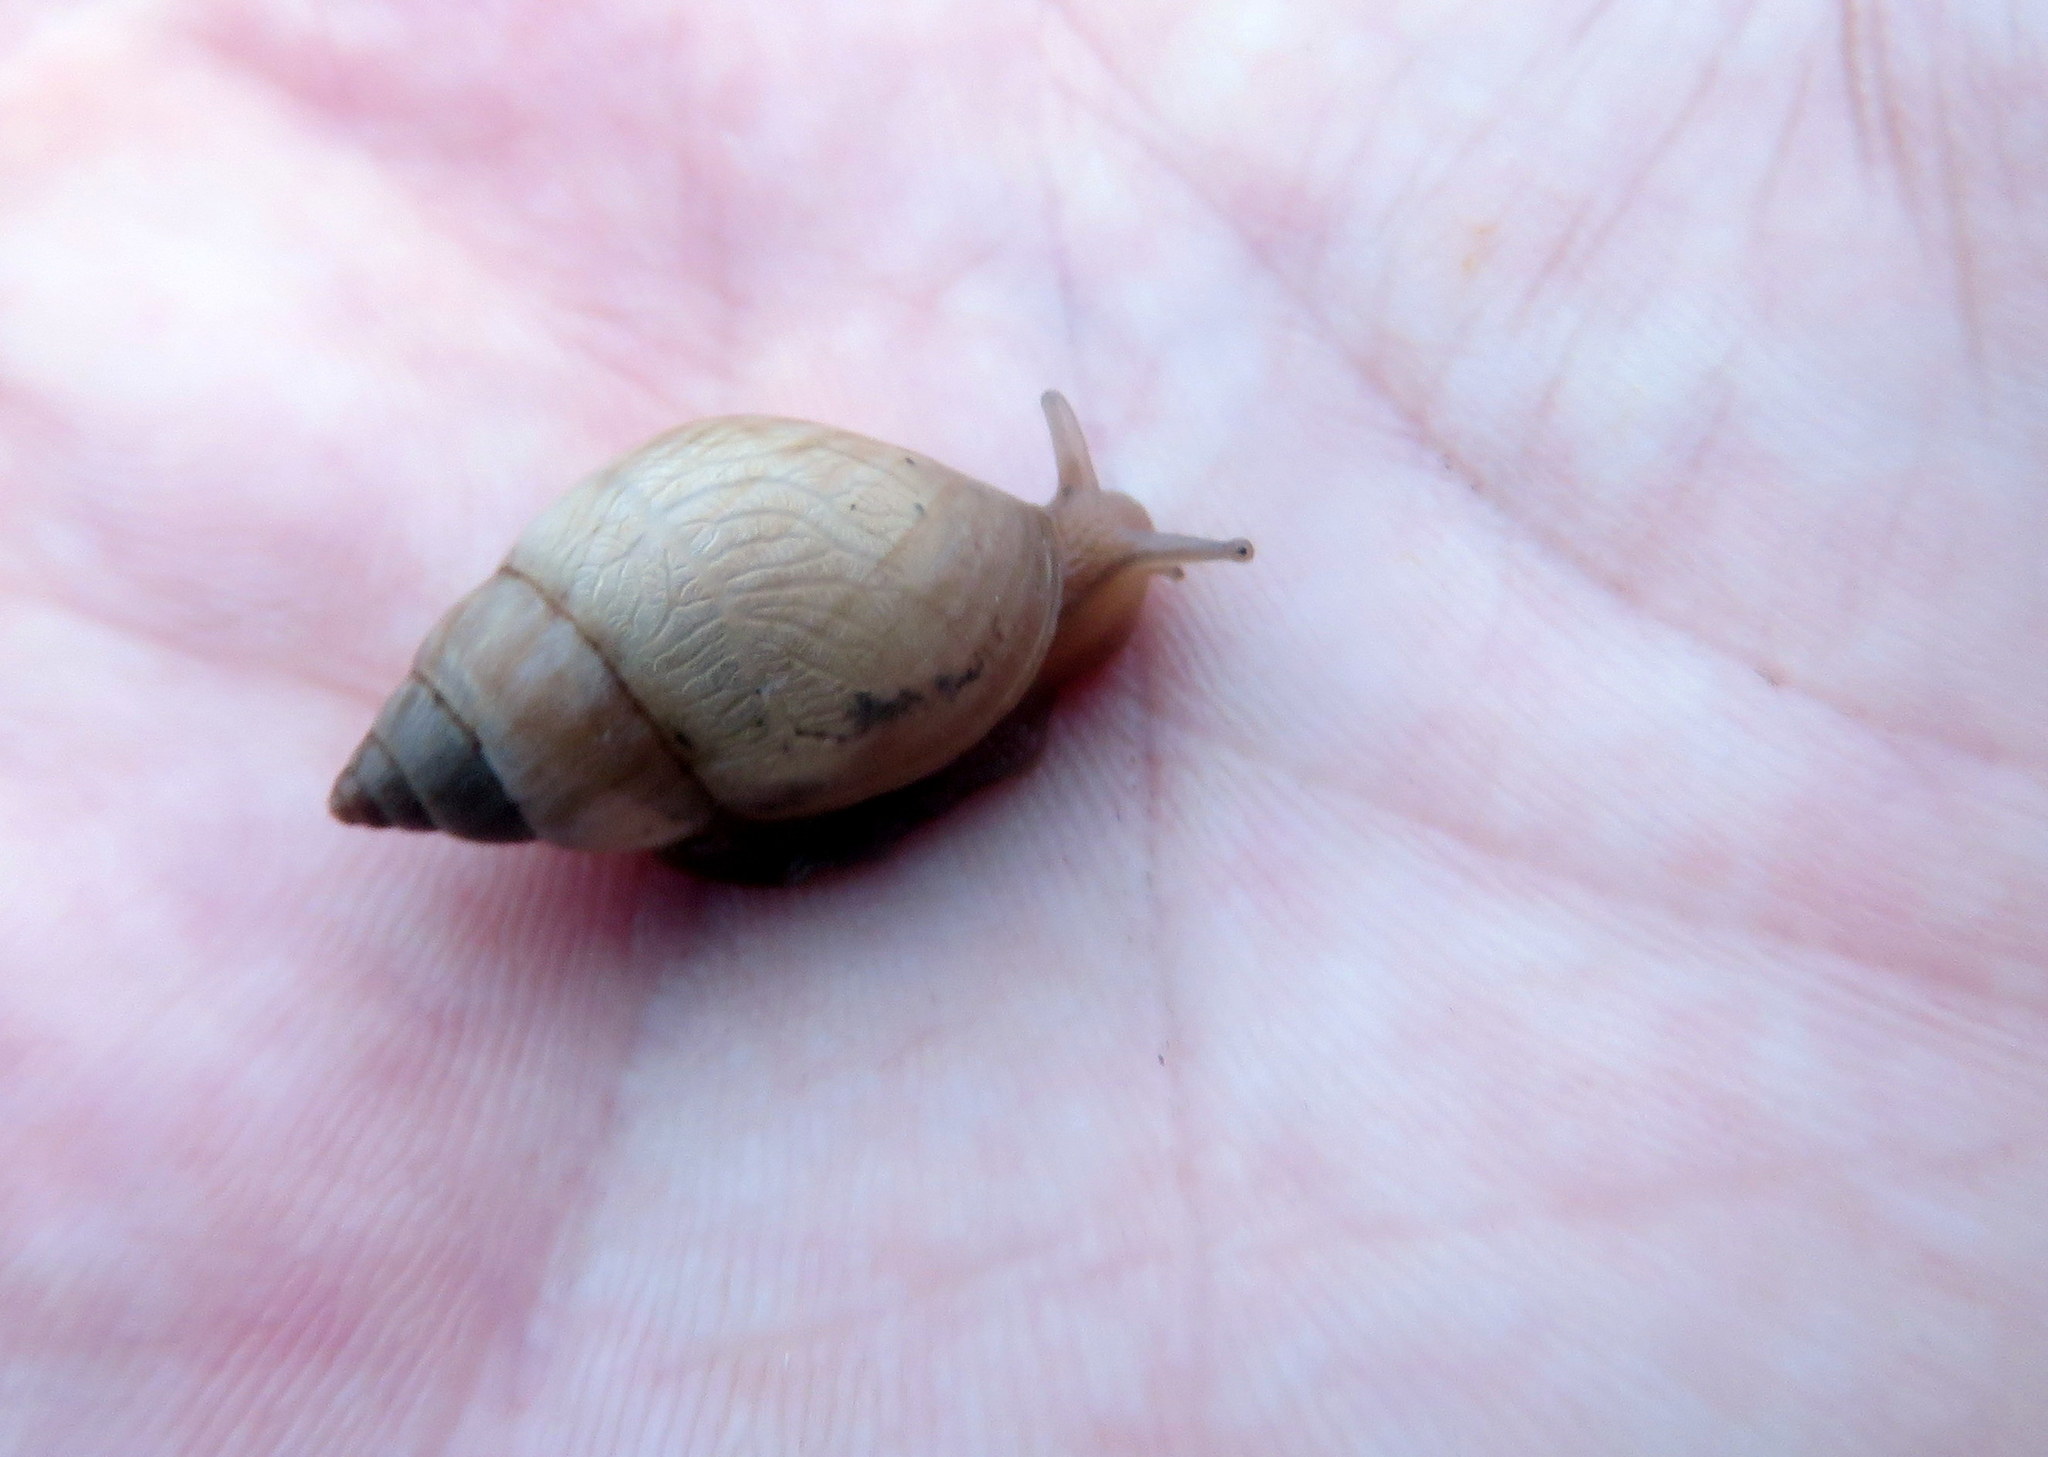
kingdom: Animalia
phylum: Mollusca
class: Gastropoda
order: Stylommatophora
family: Bulimulidae
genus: Bulimulus
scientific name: Bulimulus
